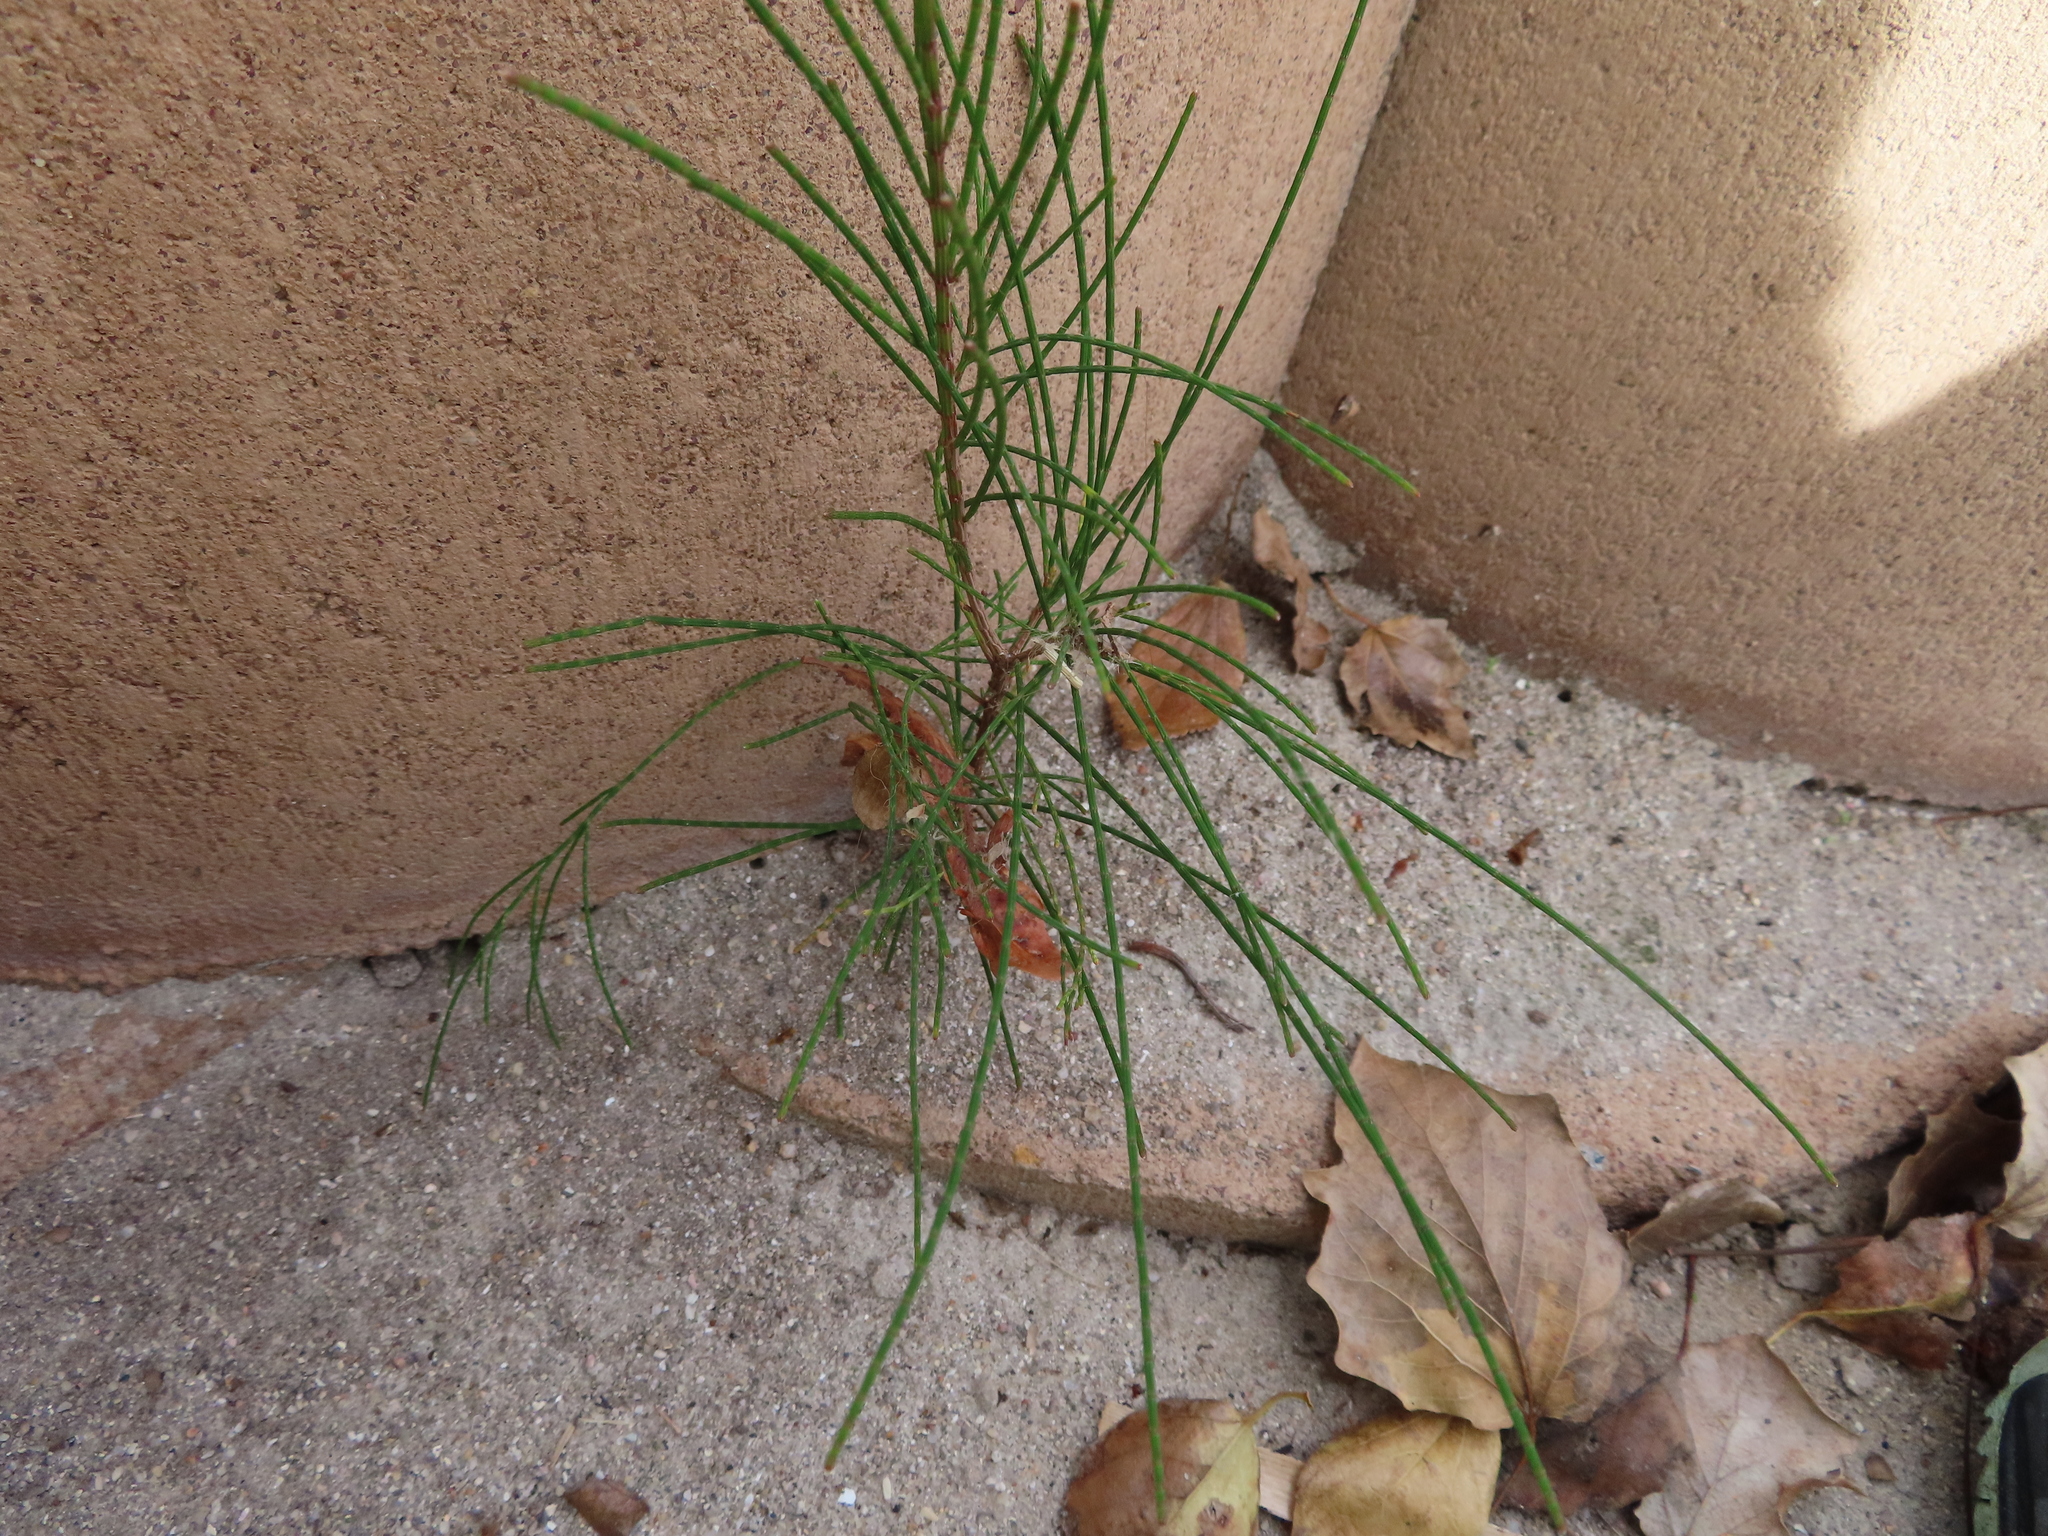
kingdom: Plantae
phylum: Tracheophyta
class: Magnoliopsida
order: Fagales
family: Casuarinaceae
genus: Casuarina
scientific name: Casuarina cunninghamiana
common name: River sheoak
